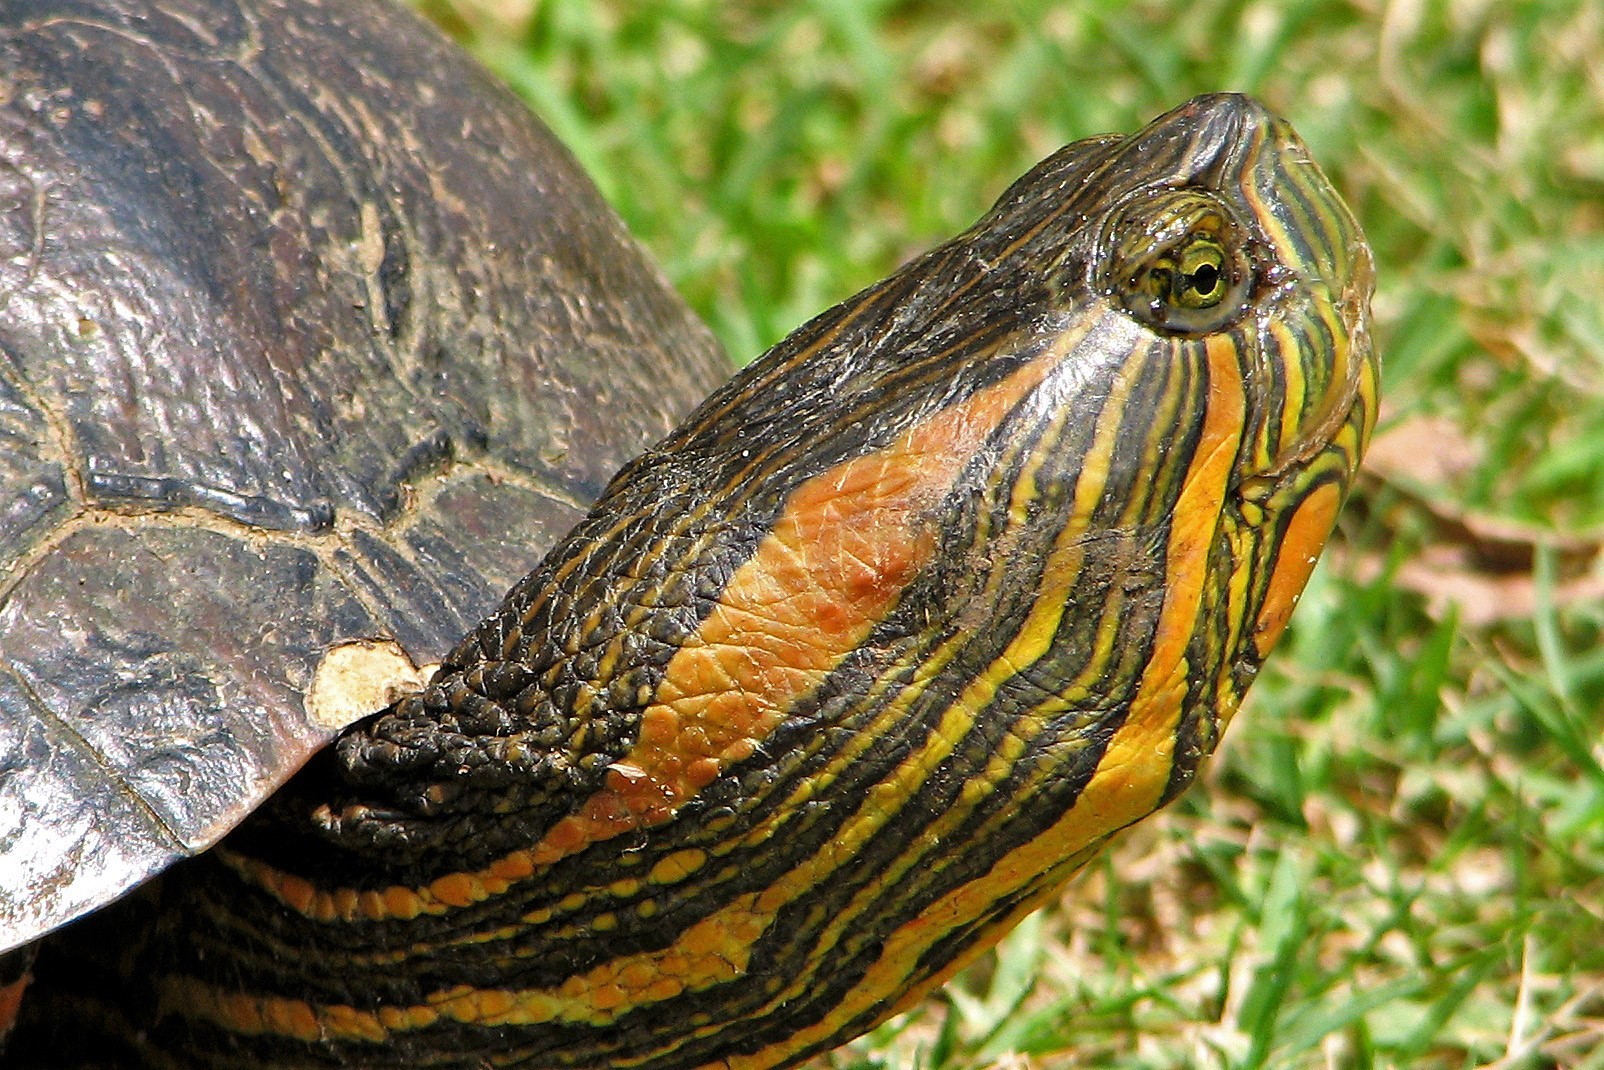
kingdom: Animalia
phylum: Chordata
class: Testudines
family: Emydidae
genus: Trachemys
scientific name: Trachemys dorbigni
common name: Black-bellied slider
